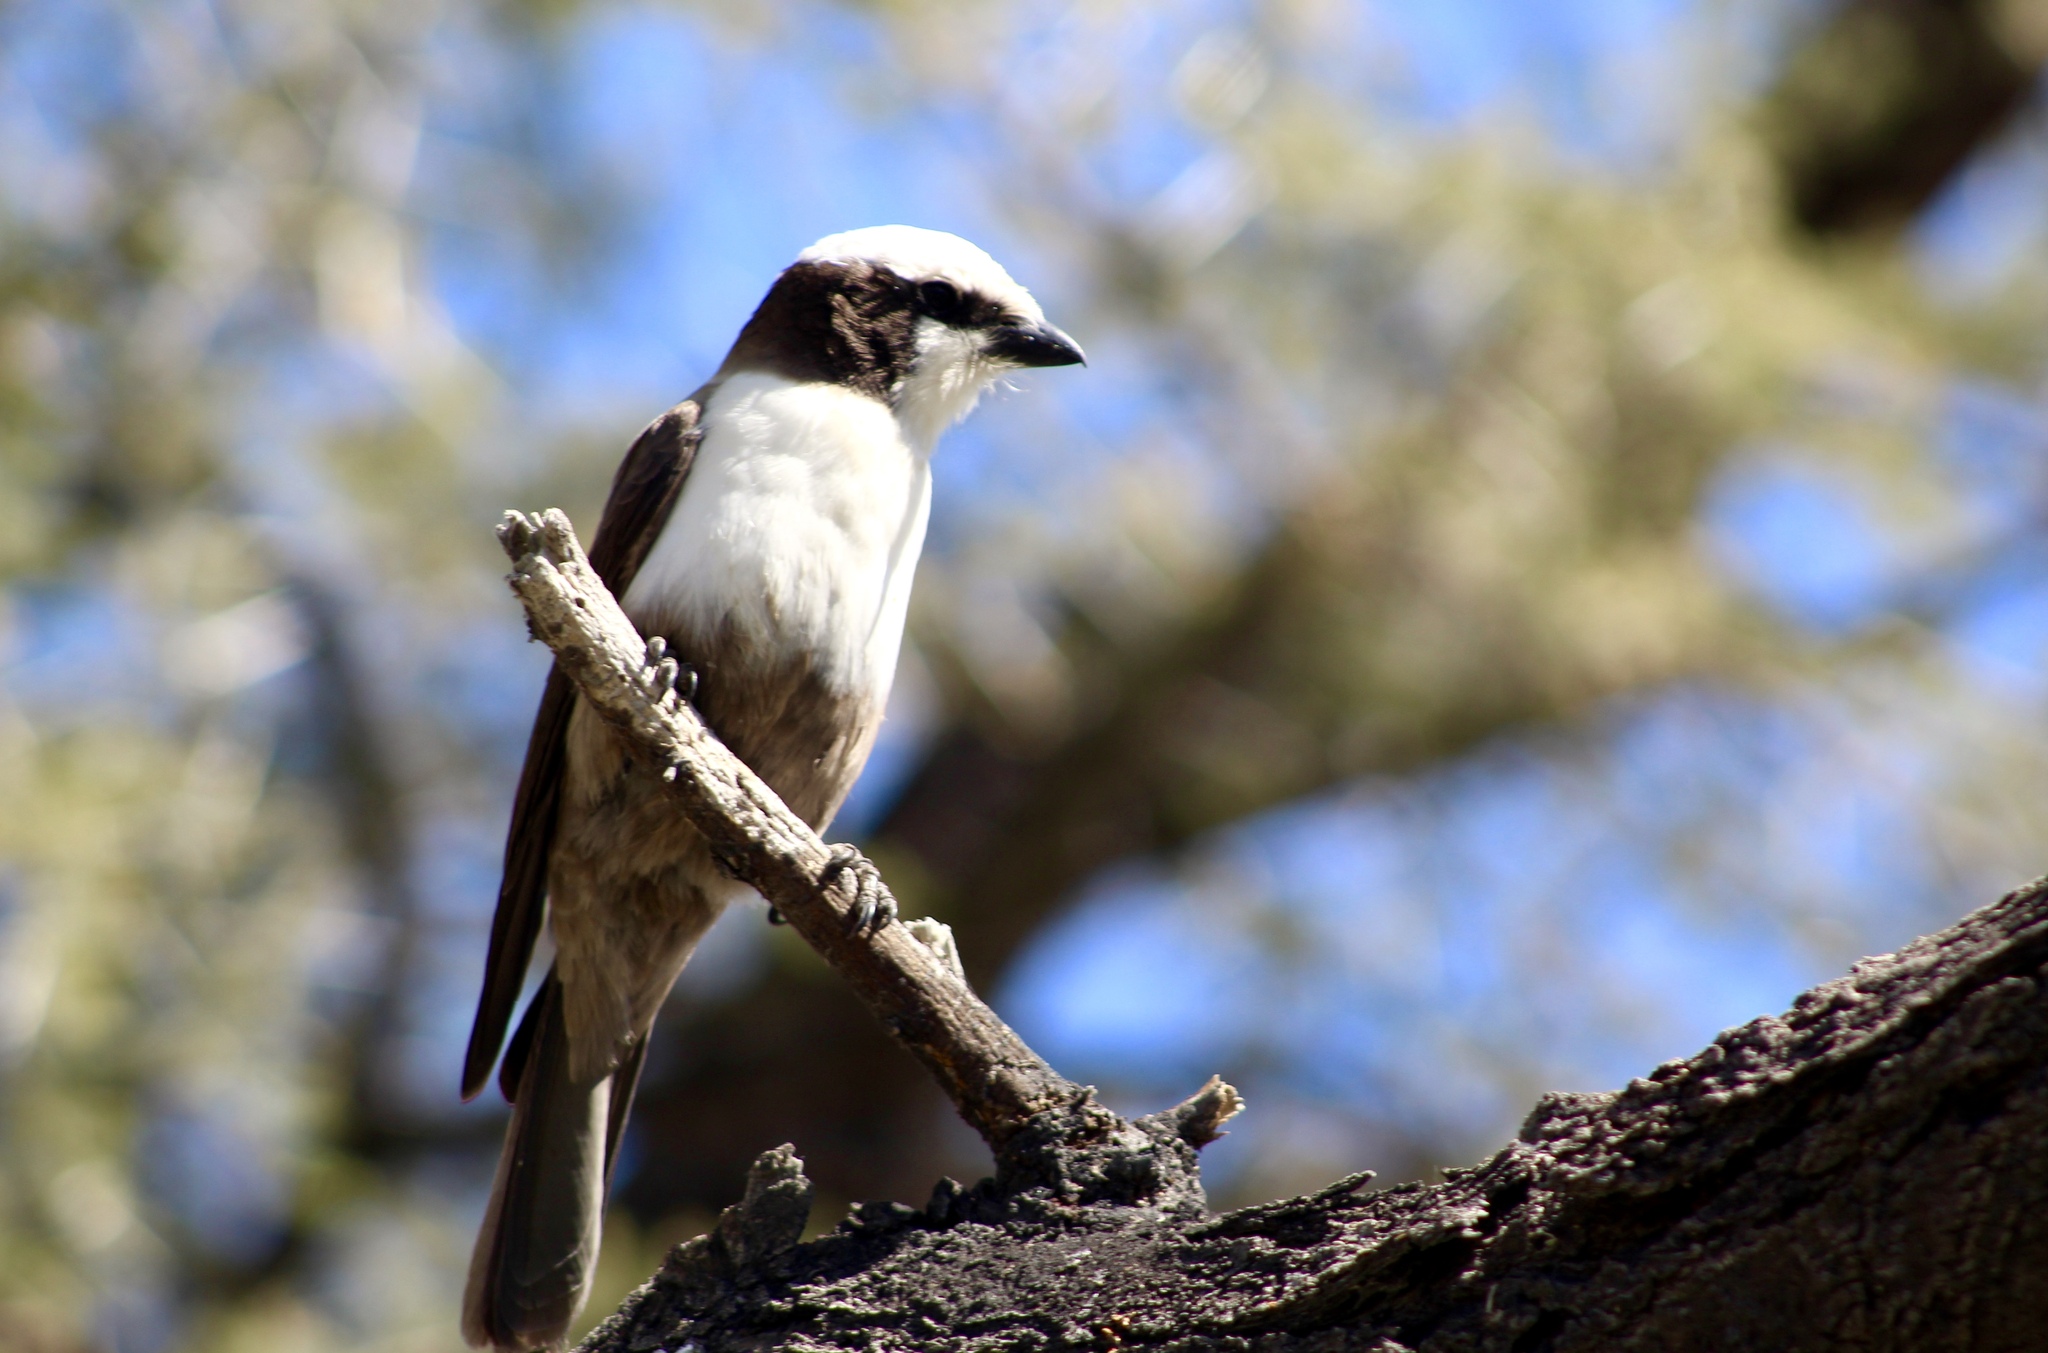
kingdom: Animalia
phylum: Chordata
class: Aves
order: Passeriformes
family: Laniidae
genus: Eurocephalus
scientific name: Eurocephalus anguitimens
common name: Southern white-crowned shrike
